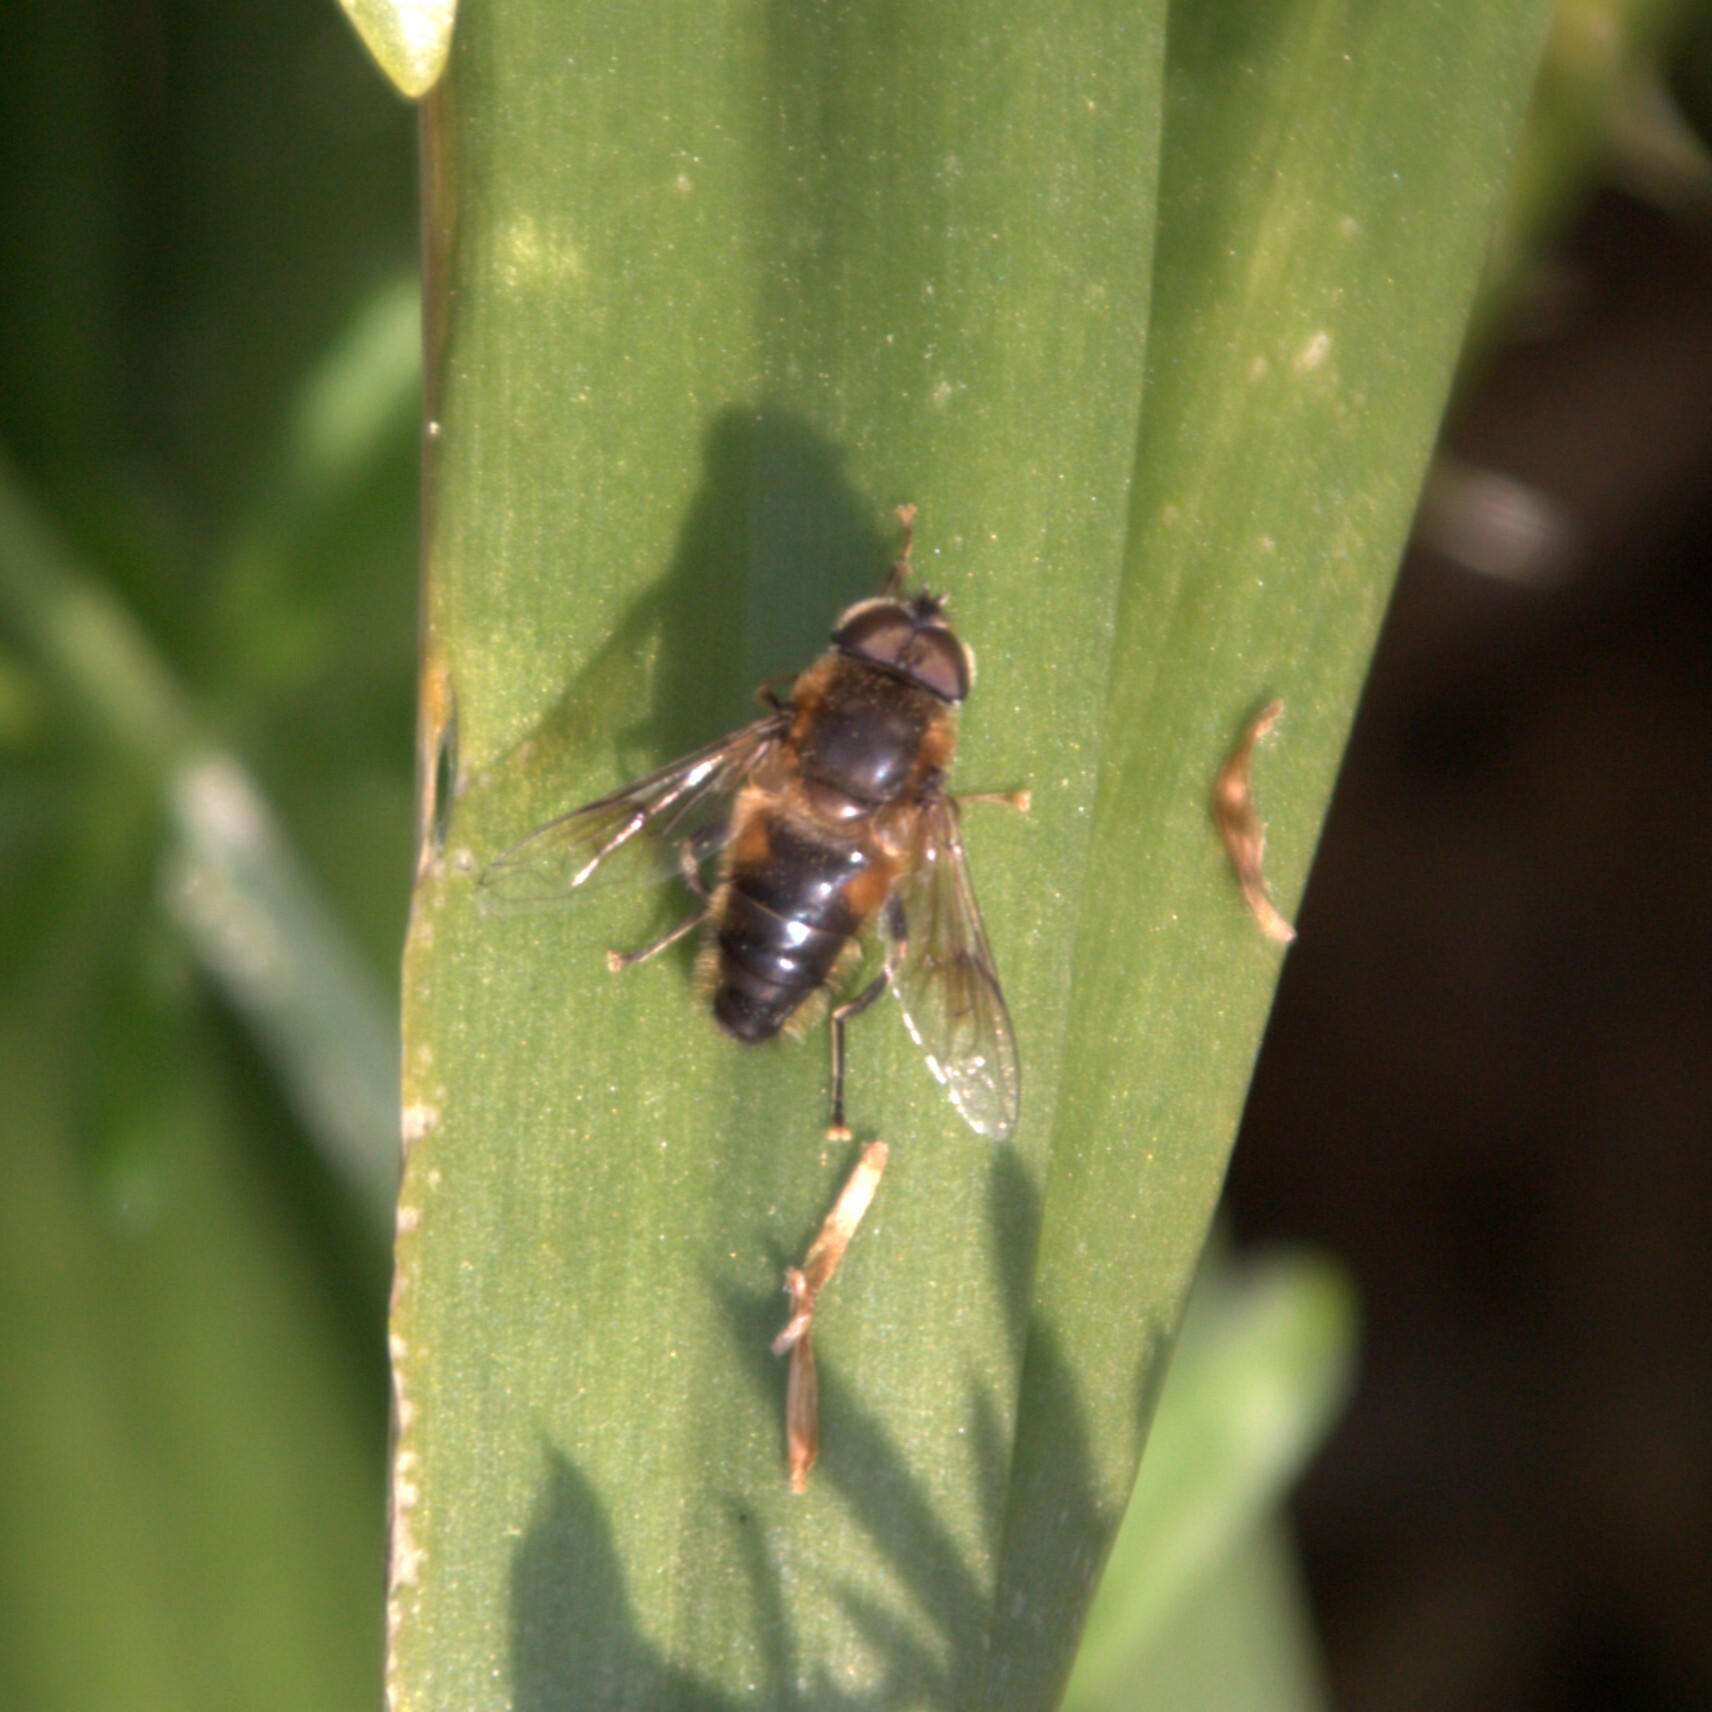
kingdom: Animalia
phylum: Arthropoda
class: Insecta
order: Diptera
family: Syrphidae
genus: Eristalis
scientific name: Eristalis pertinax
